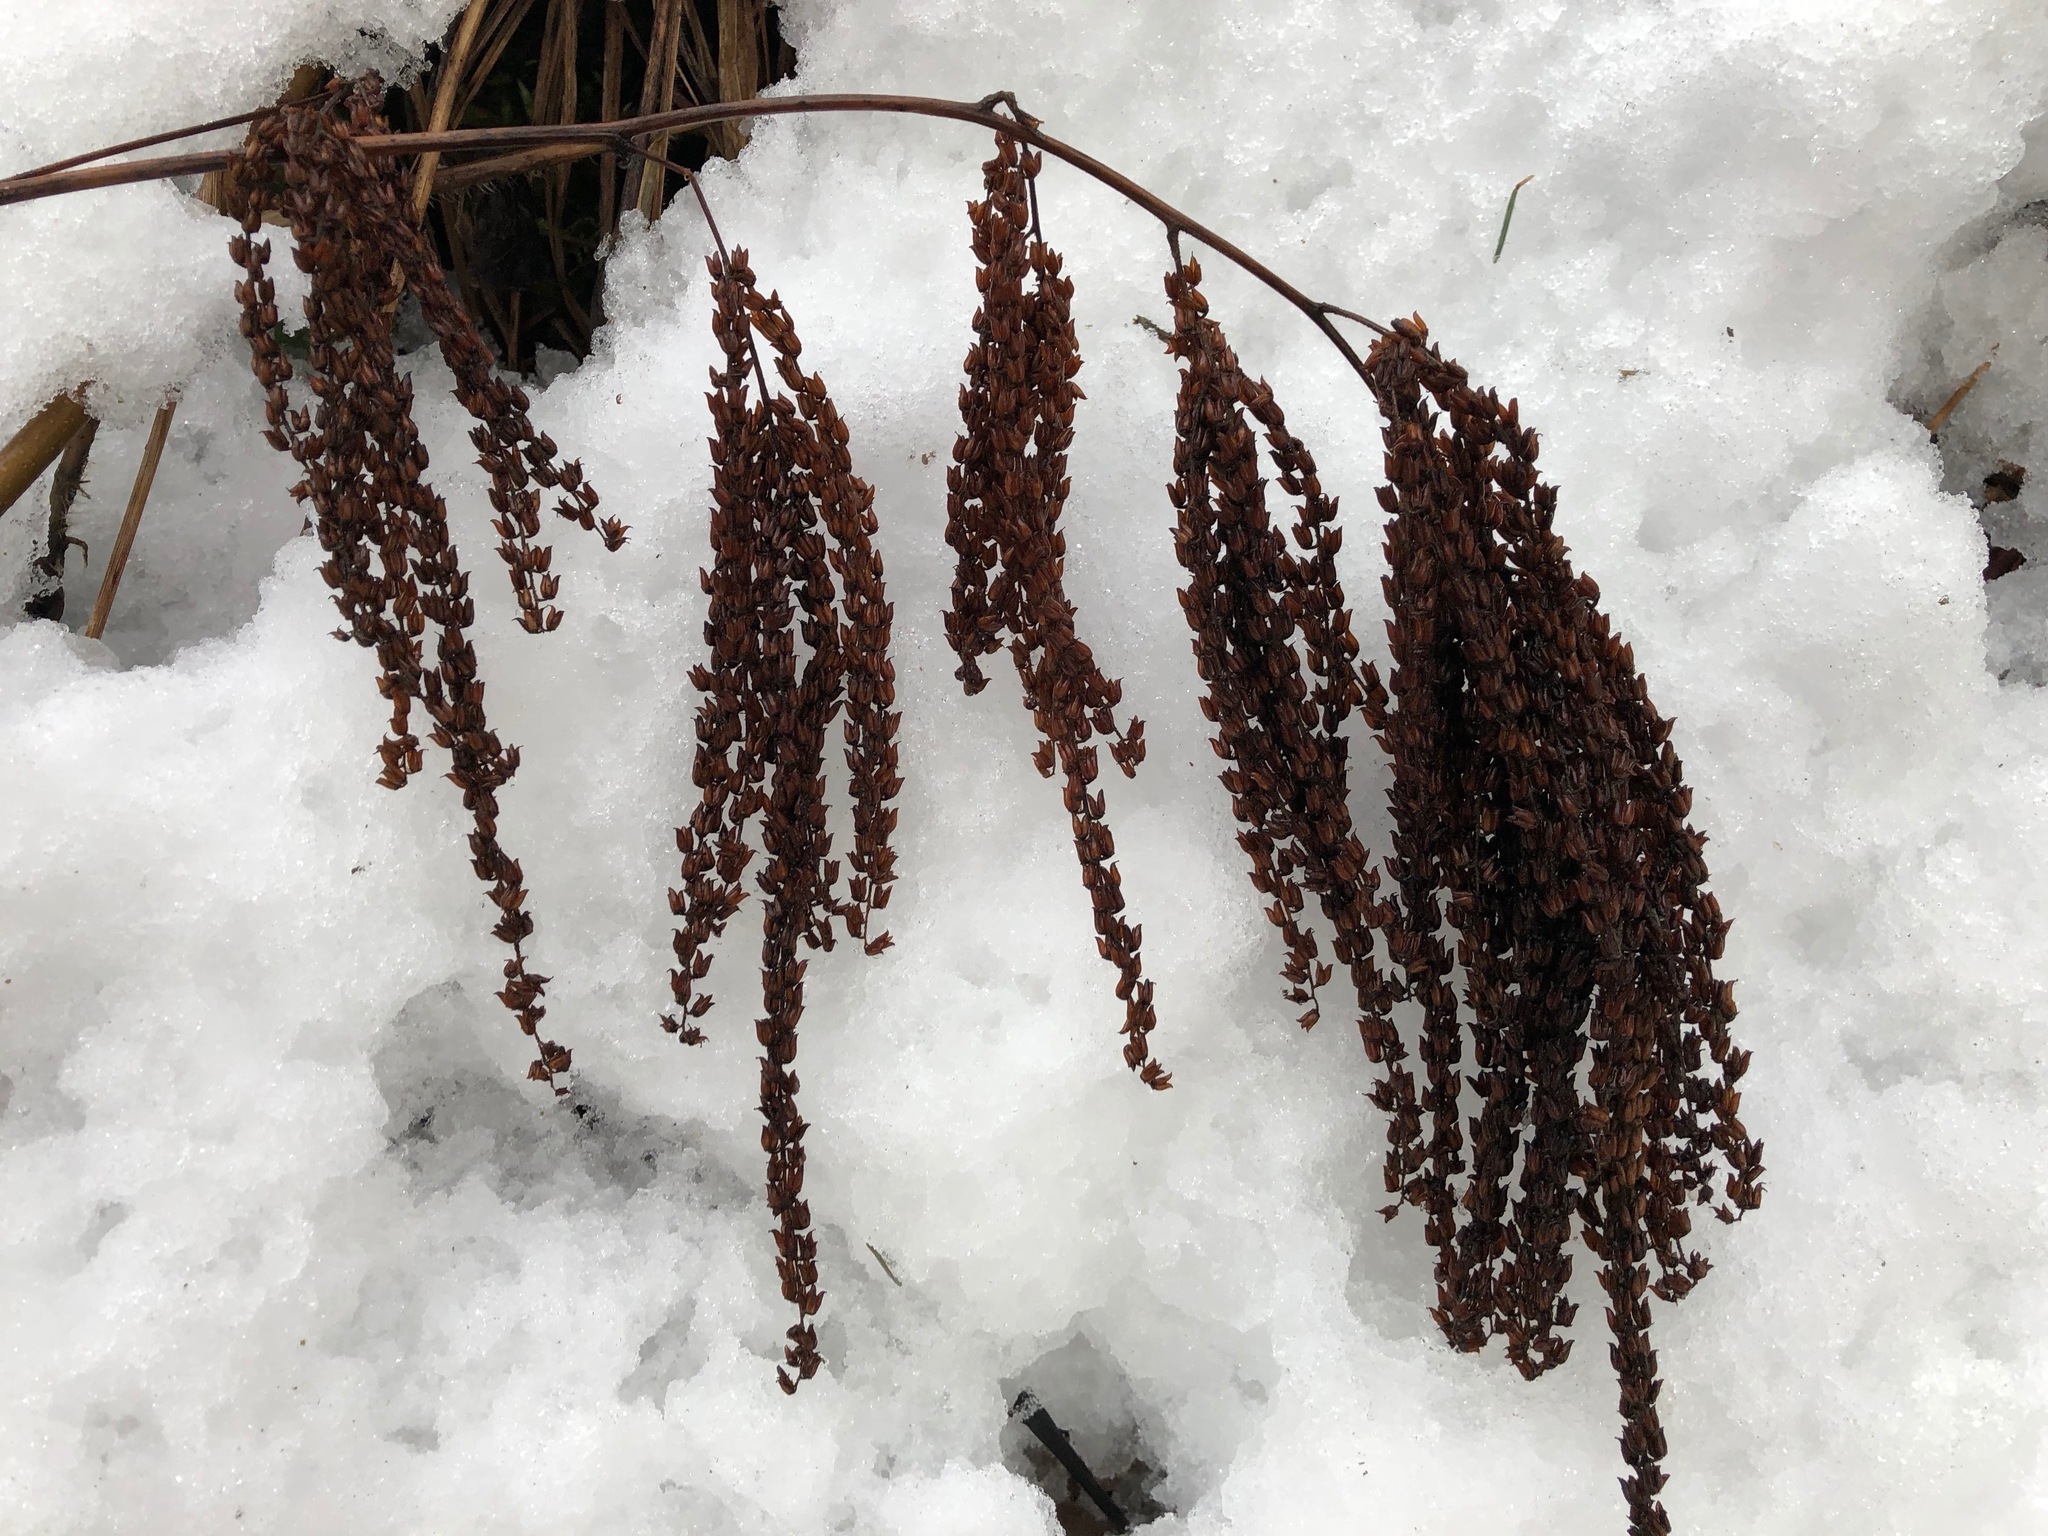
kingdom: Plantae
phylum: Tracheophyta
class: Magnoliopsida
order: Rosales
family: Rosaceae
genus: Aruncus
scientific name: Aruncus dioicus
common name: Buck's-beard
